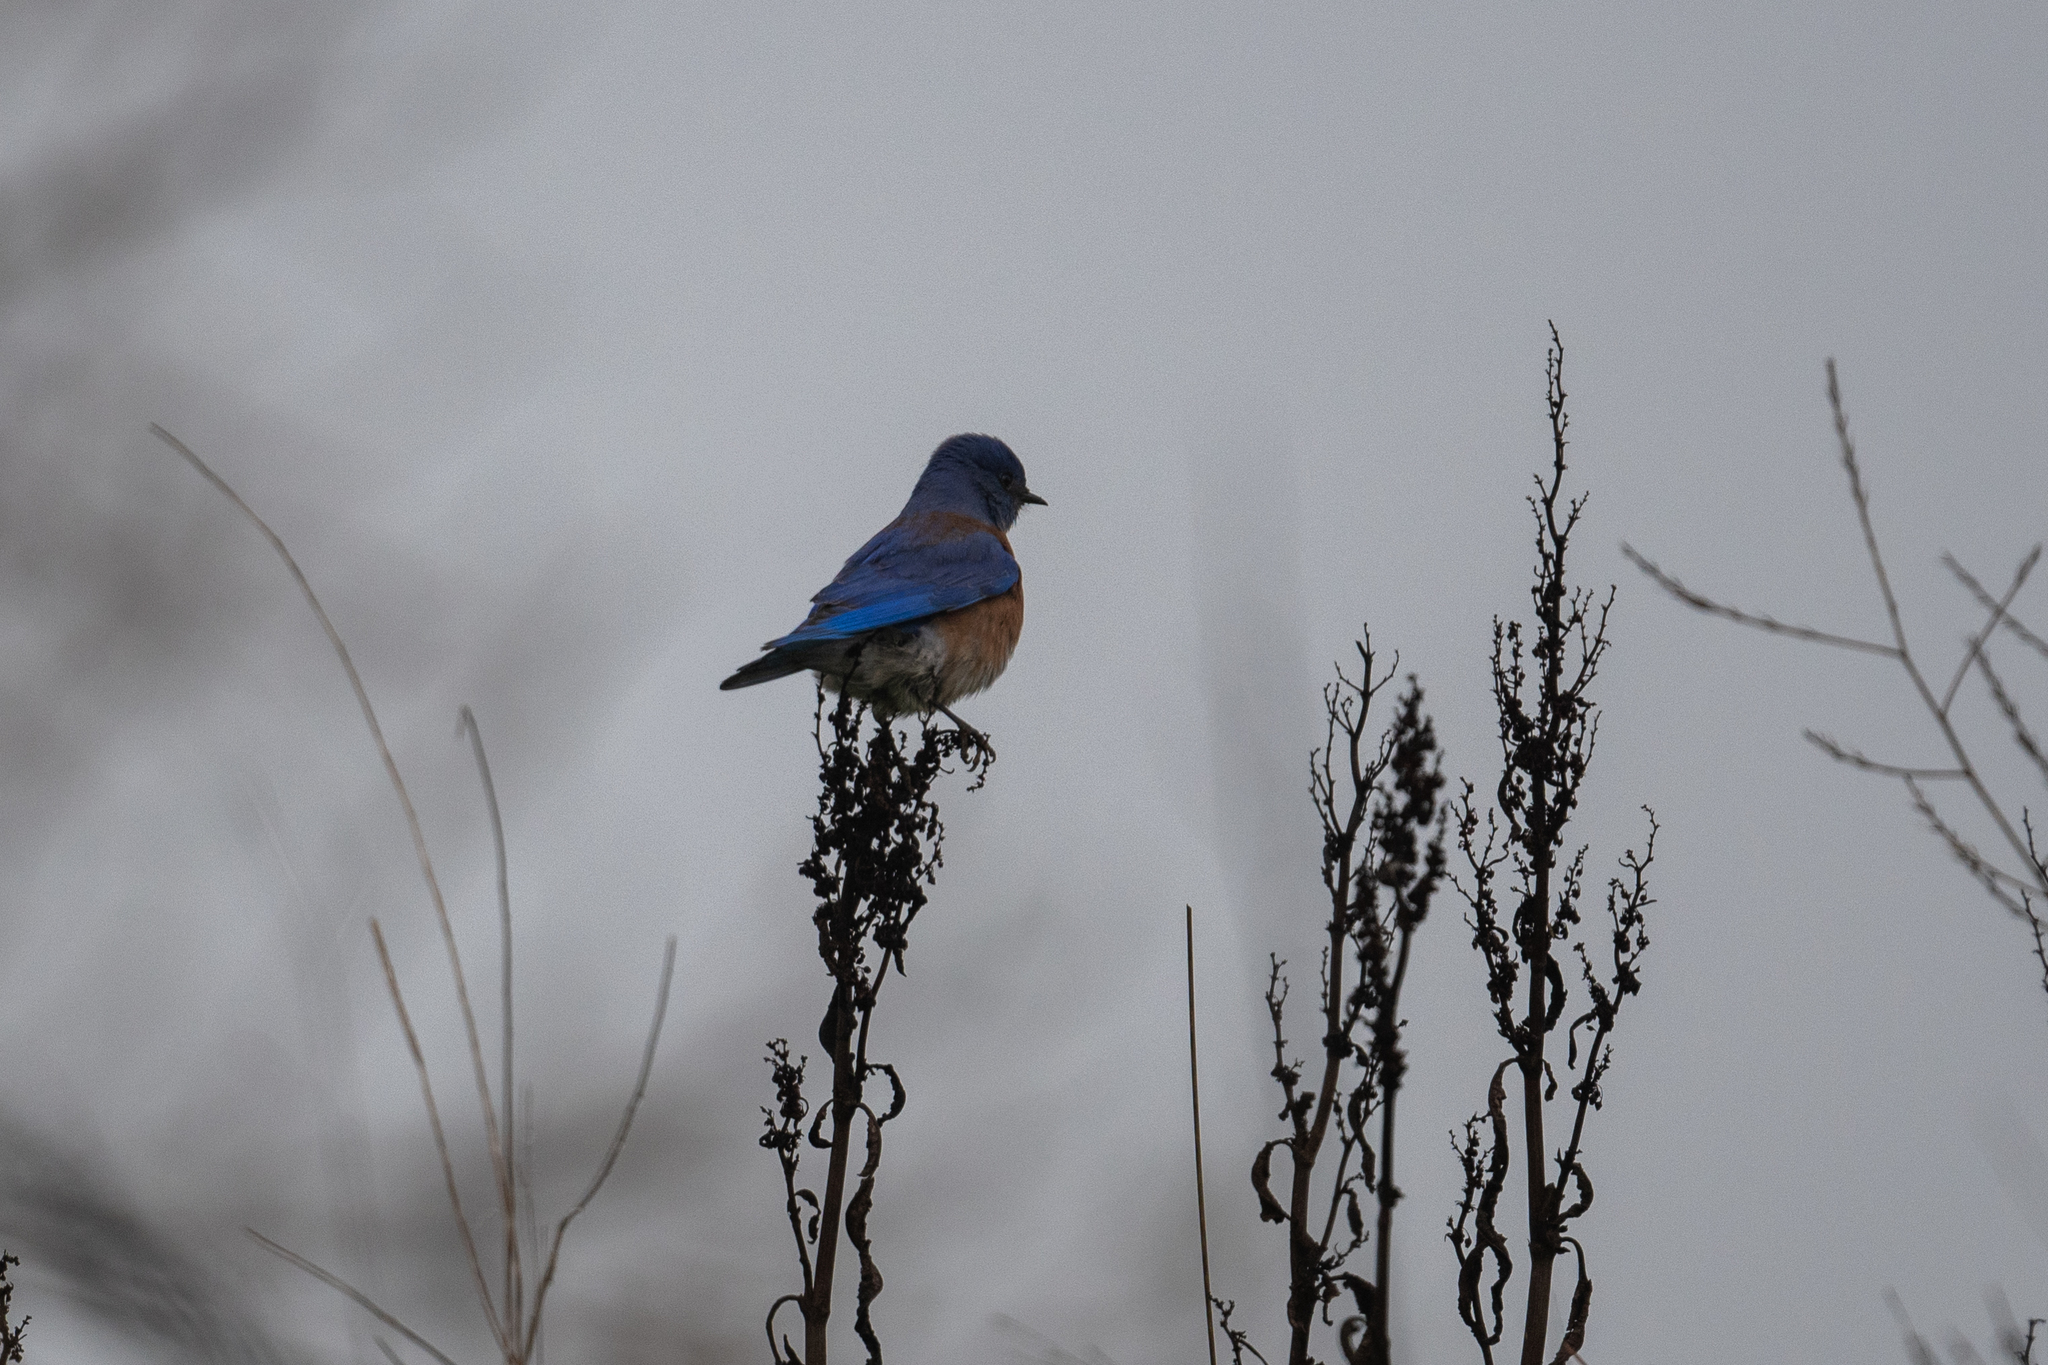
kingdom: Animalia
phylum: Chordata
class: Aves
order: Passeriformes
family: Turdidae
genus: Sialia
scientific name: Sialia mexicana
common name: Western bluebird
